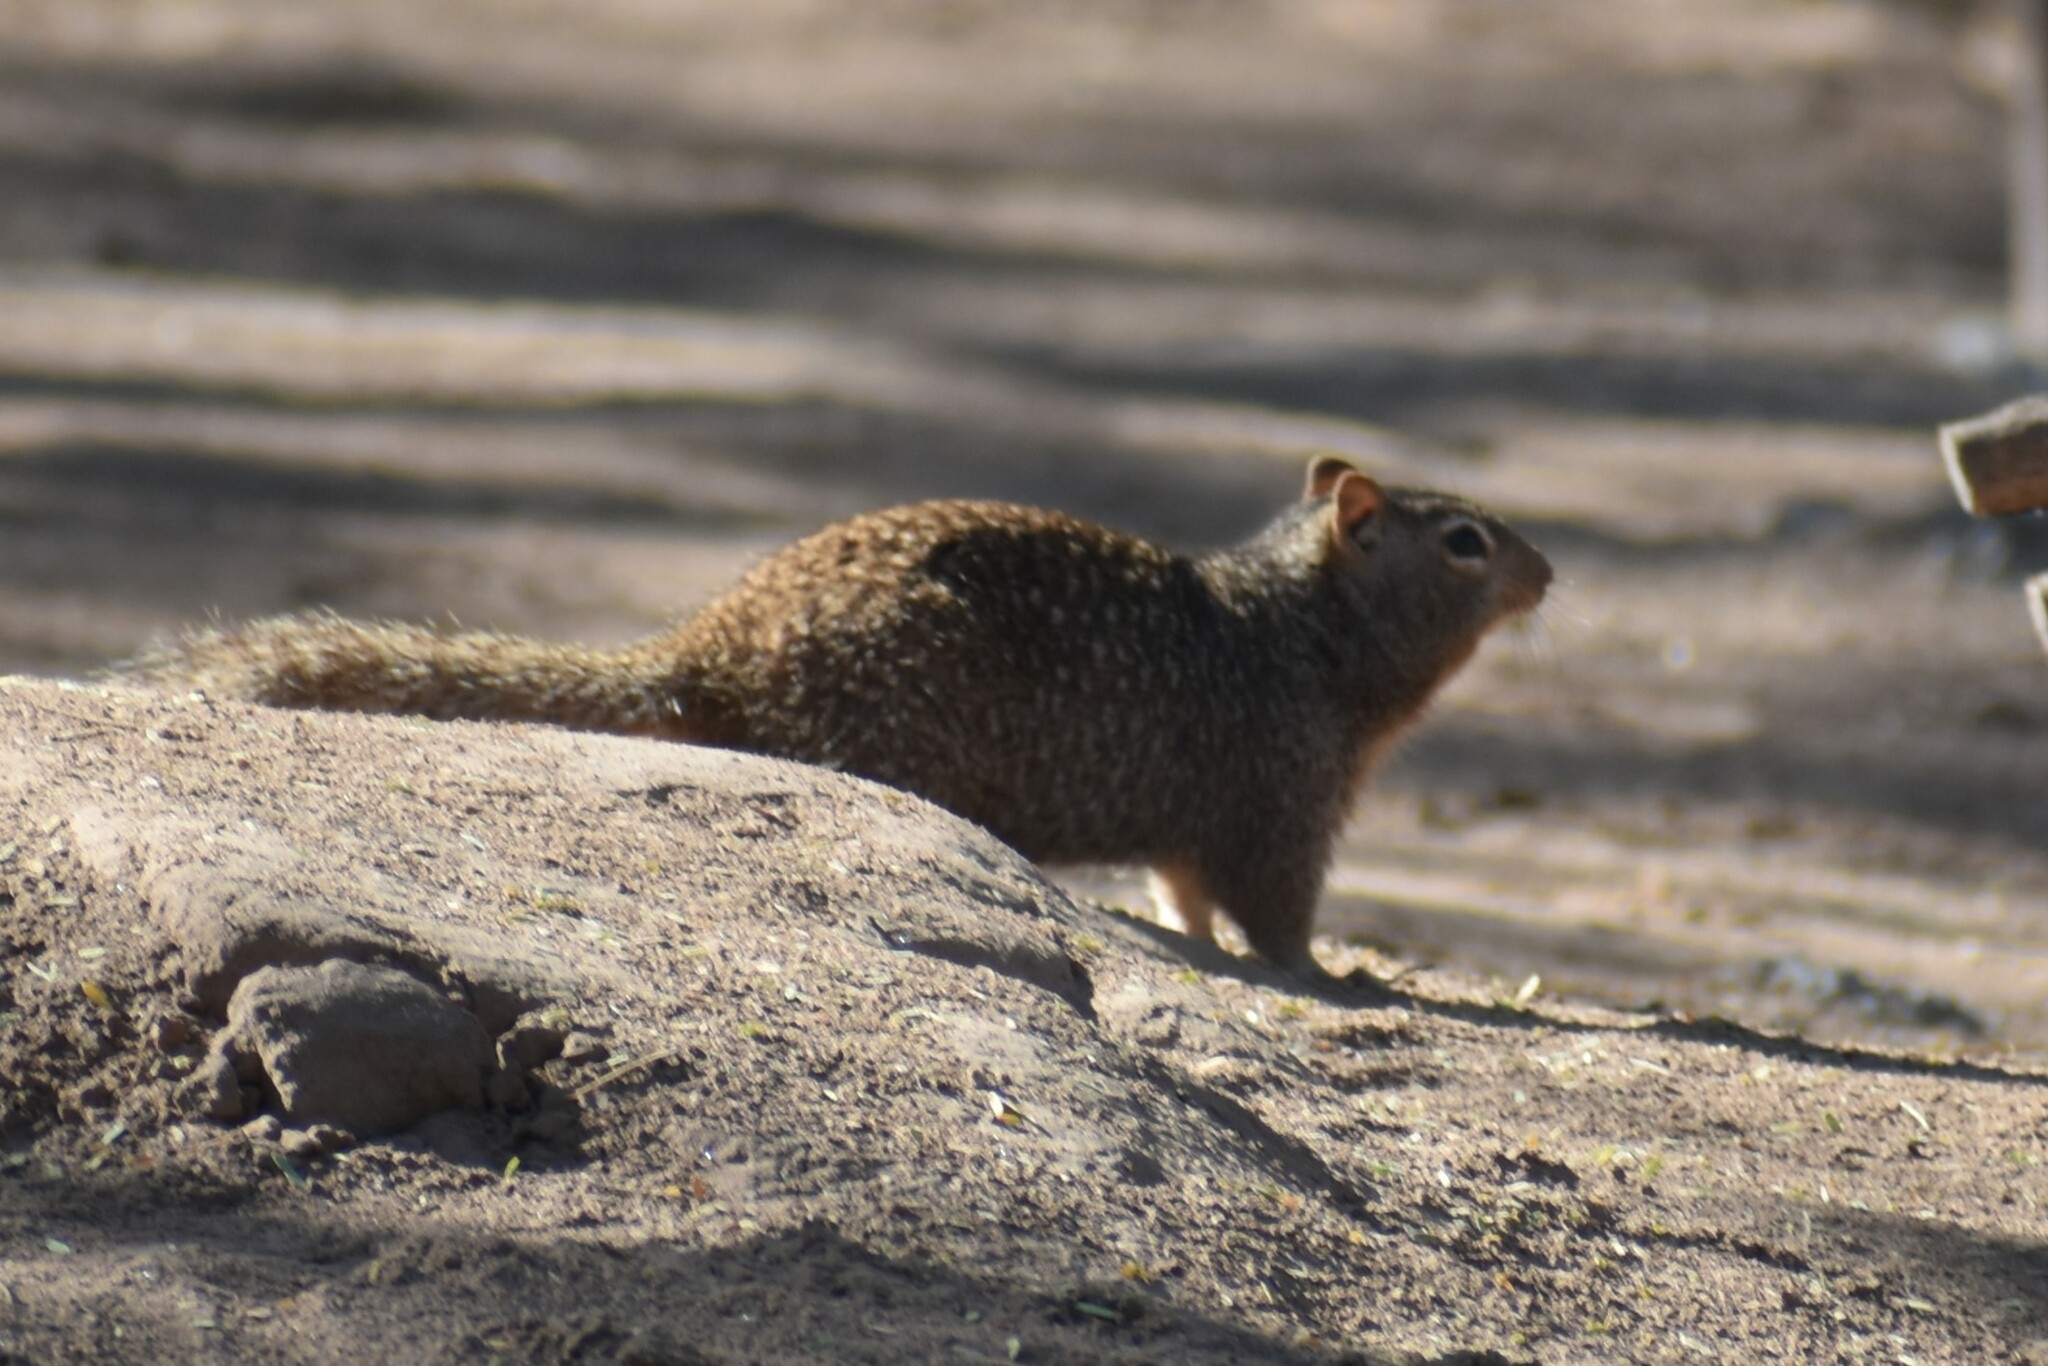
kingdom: Animalia
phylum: Chordata
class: Mammalia
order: Rodentia
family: Sciuridae
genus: Otospermophilus
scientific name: Otospermophilus variegatus
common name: Rock squirrel
